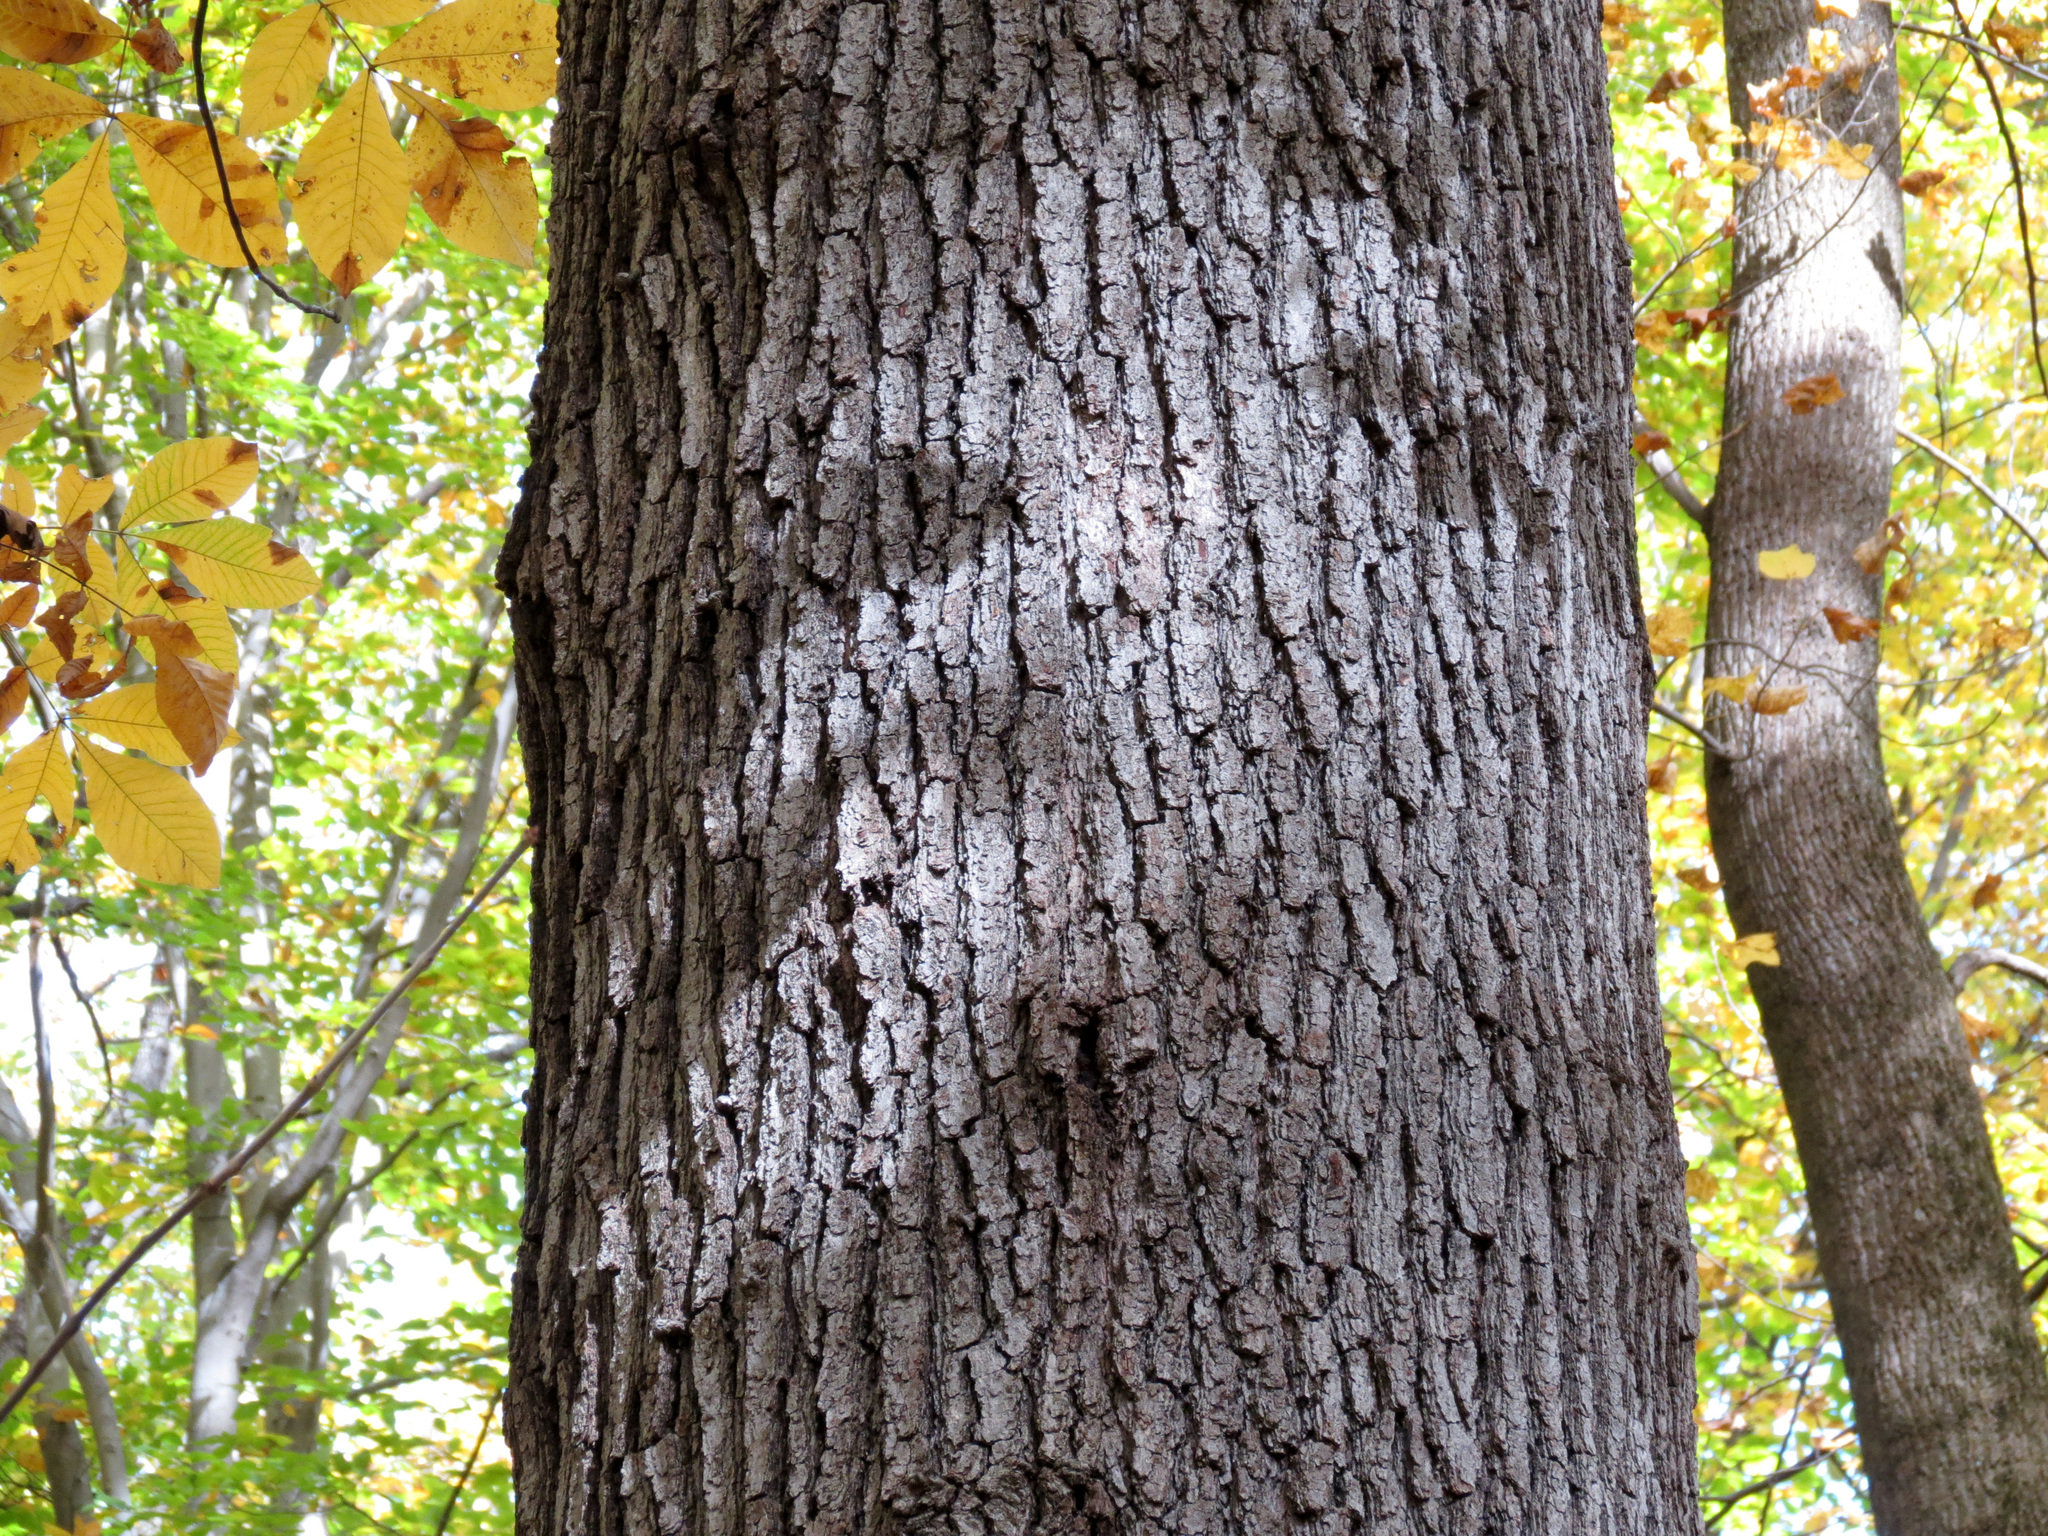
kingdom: Plantae
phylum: Tracheophyta
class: Magnoliopsida
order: Fagales
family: Fagaceae
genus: Quercus
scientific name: Quercus velutina
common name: Black oak
